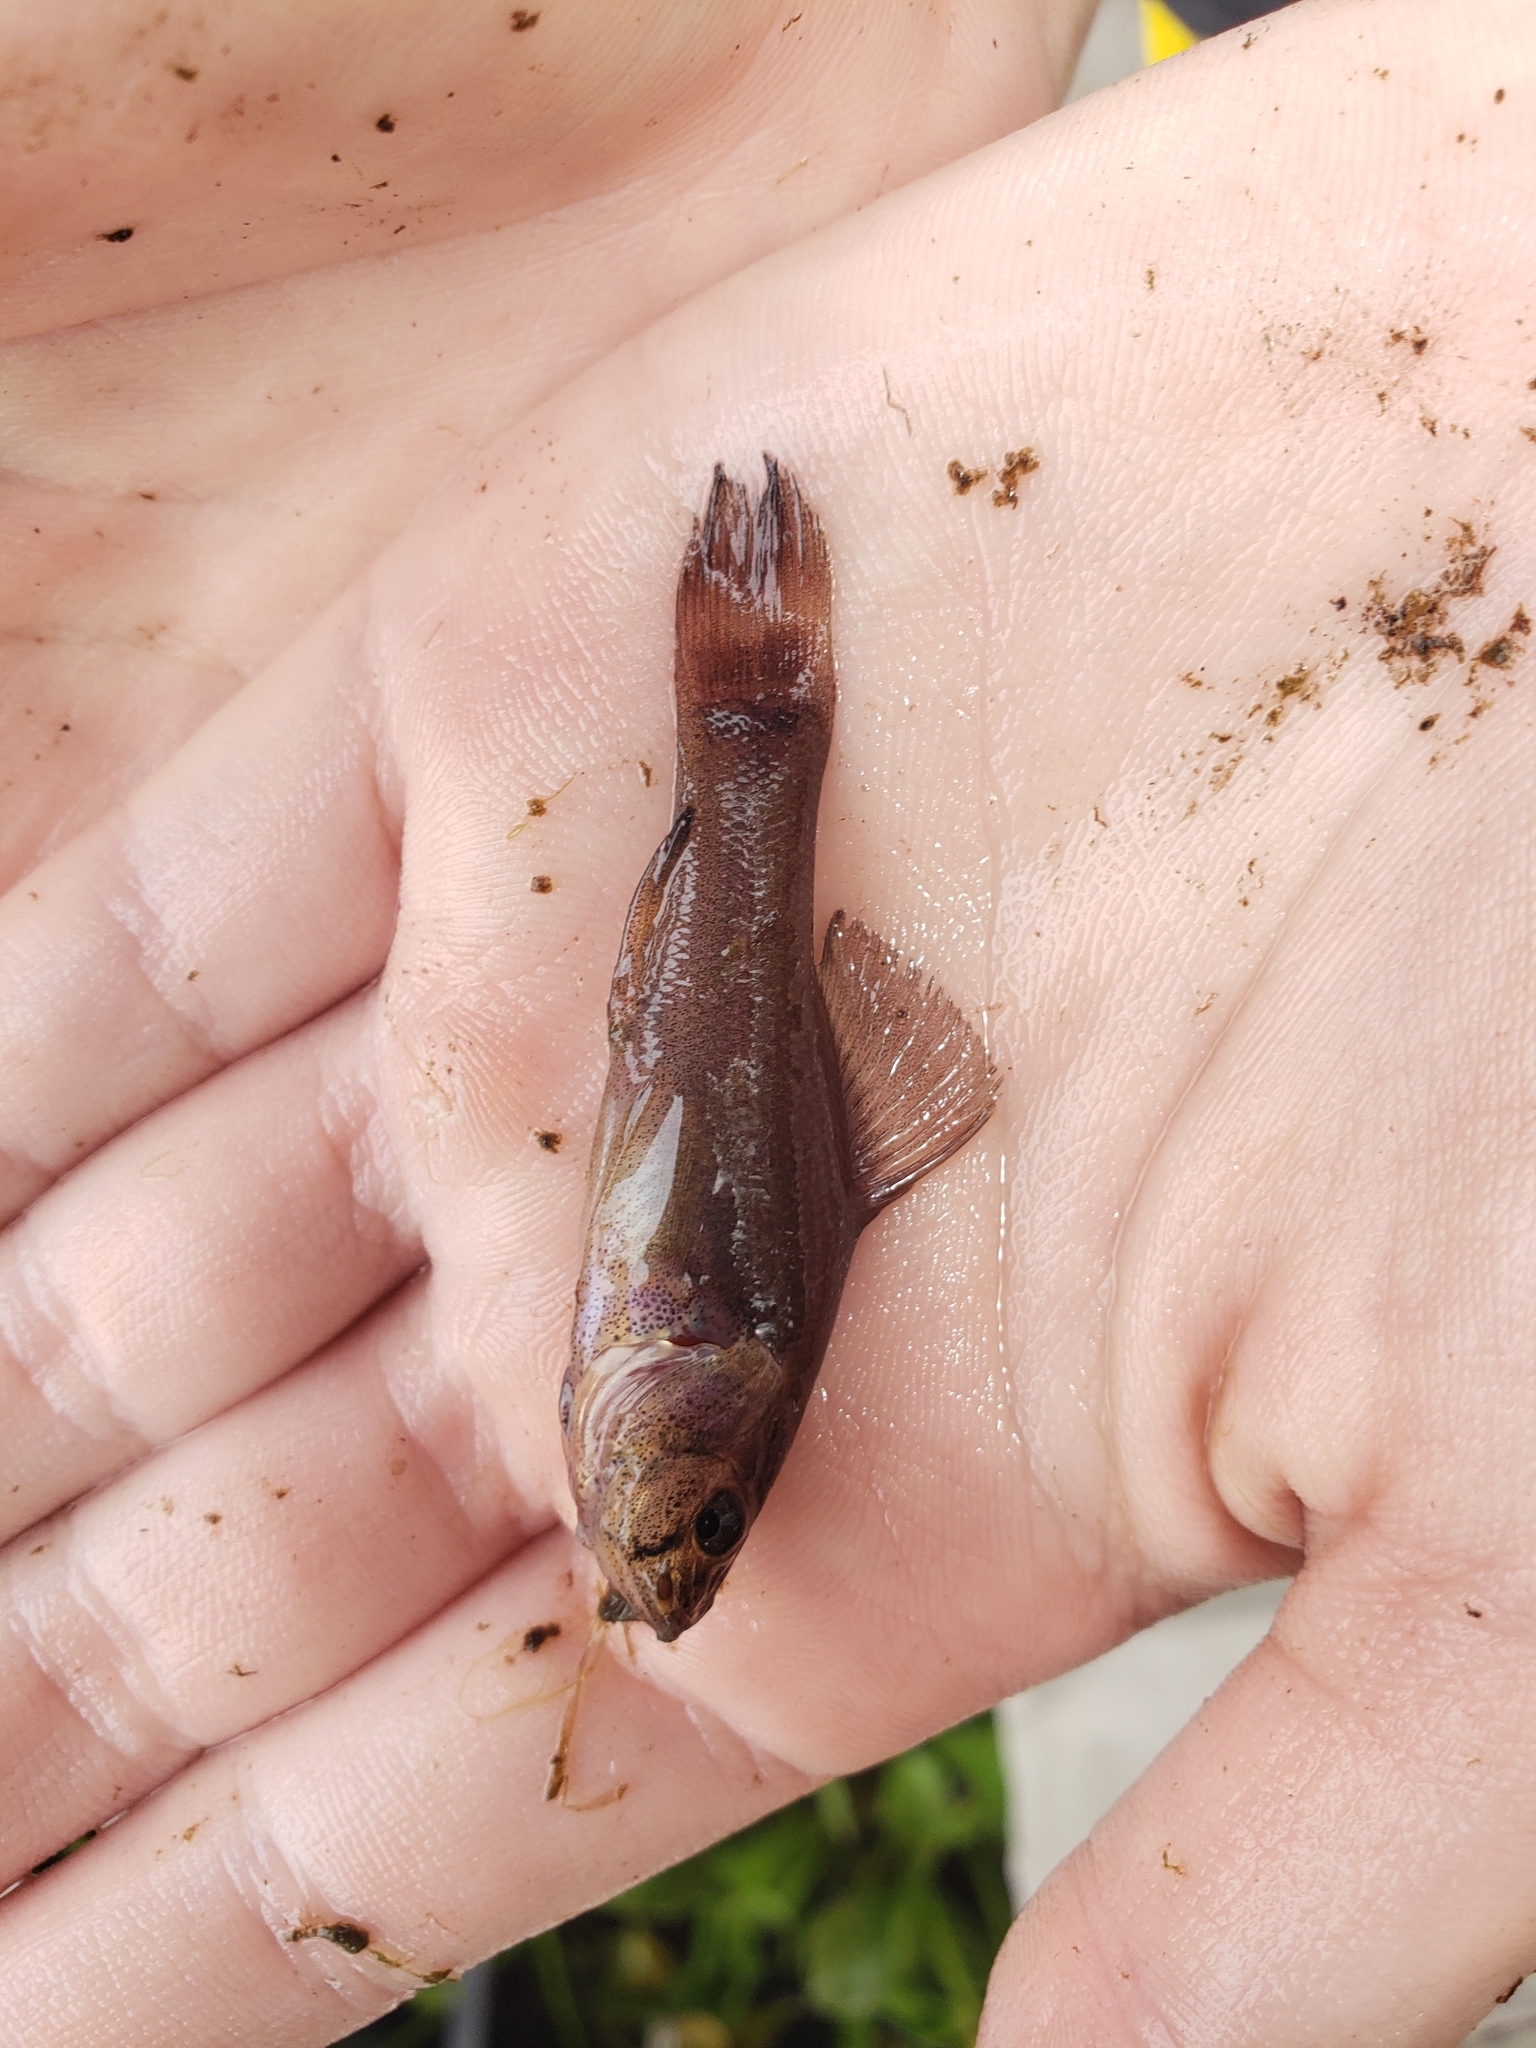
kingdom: Animalia
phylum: Chordata
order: Percopsiformes
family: Aphredoderidae
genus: Aphredoderus
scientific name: Aphredoderus sayanus
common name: Pirate perch
